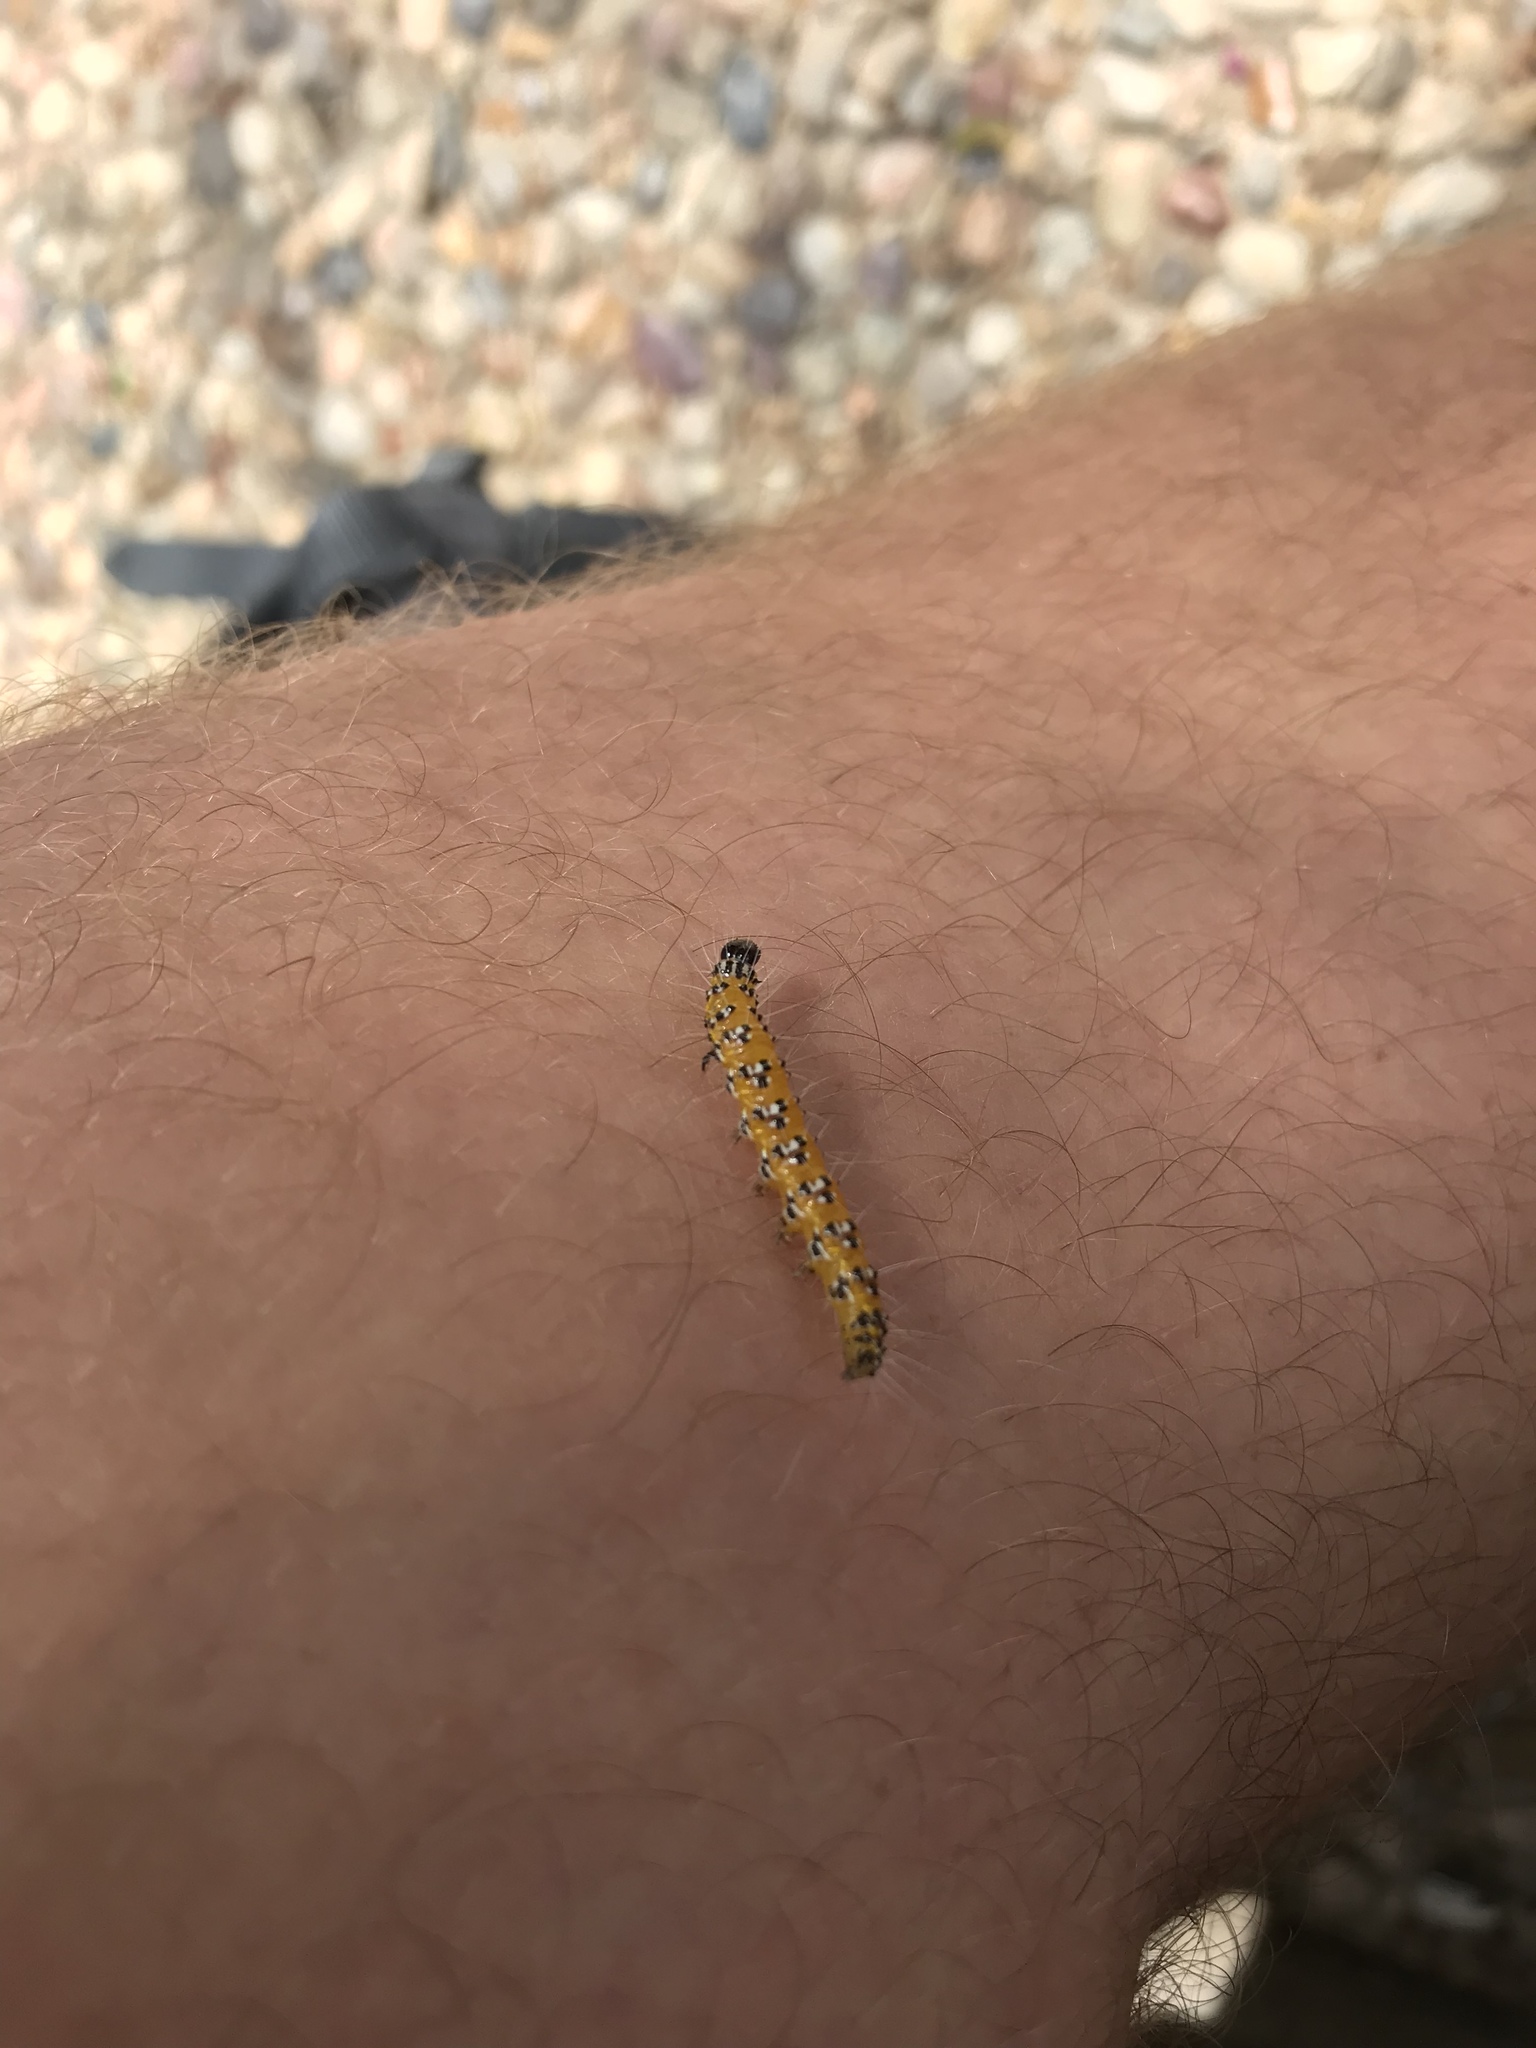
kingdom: Animalia
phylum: Arthropoda
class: Insecta
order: Lepidoptera
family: Crambidae
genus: Uresiphita
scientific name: Uresiphita reversalis
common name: Genista broom moth
